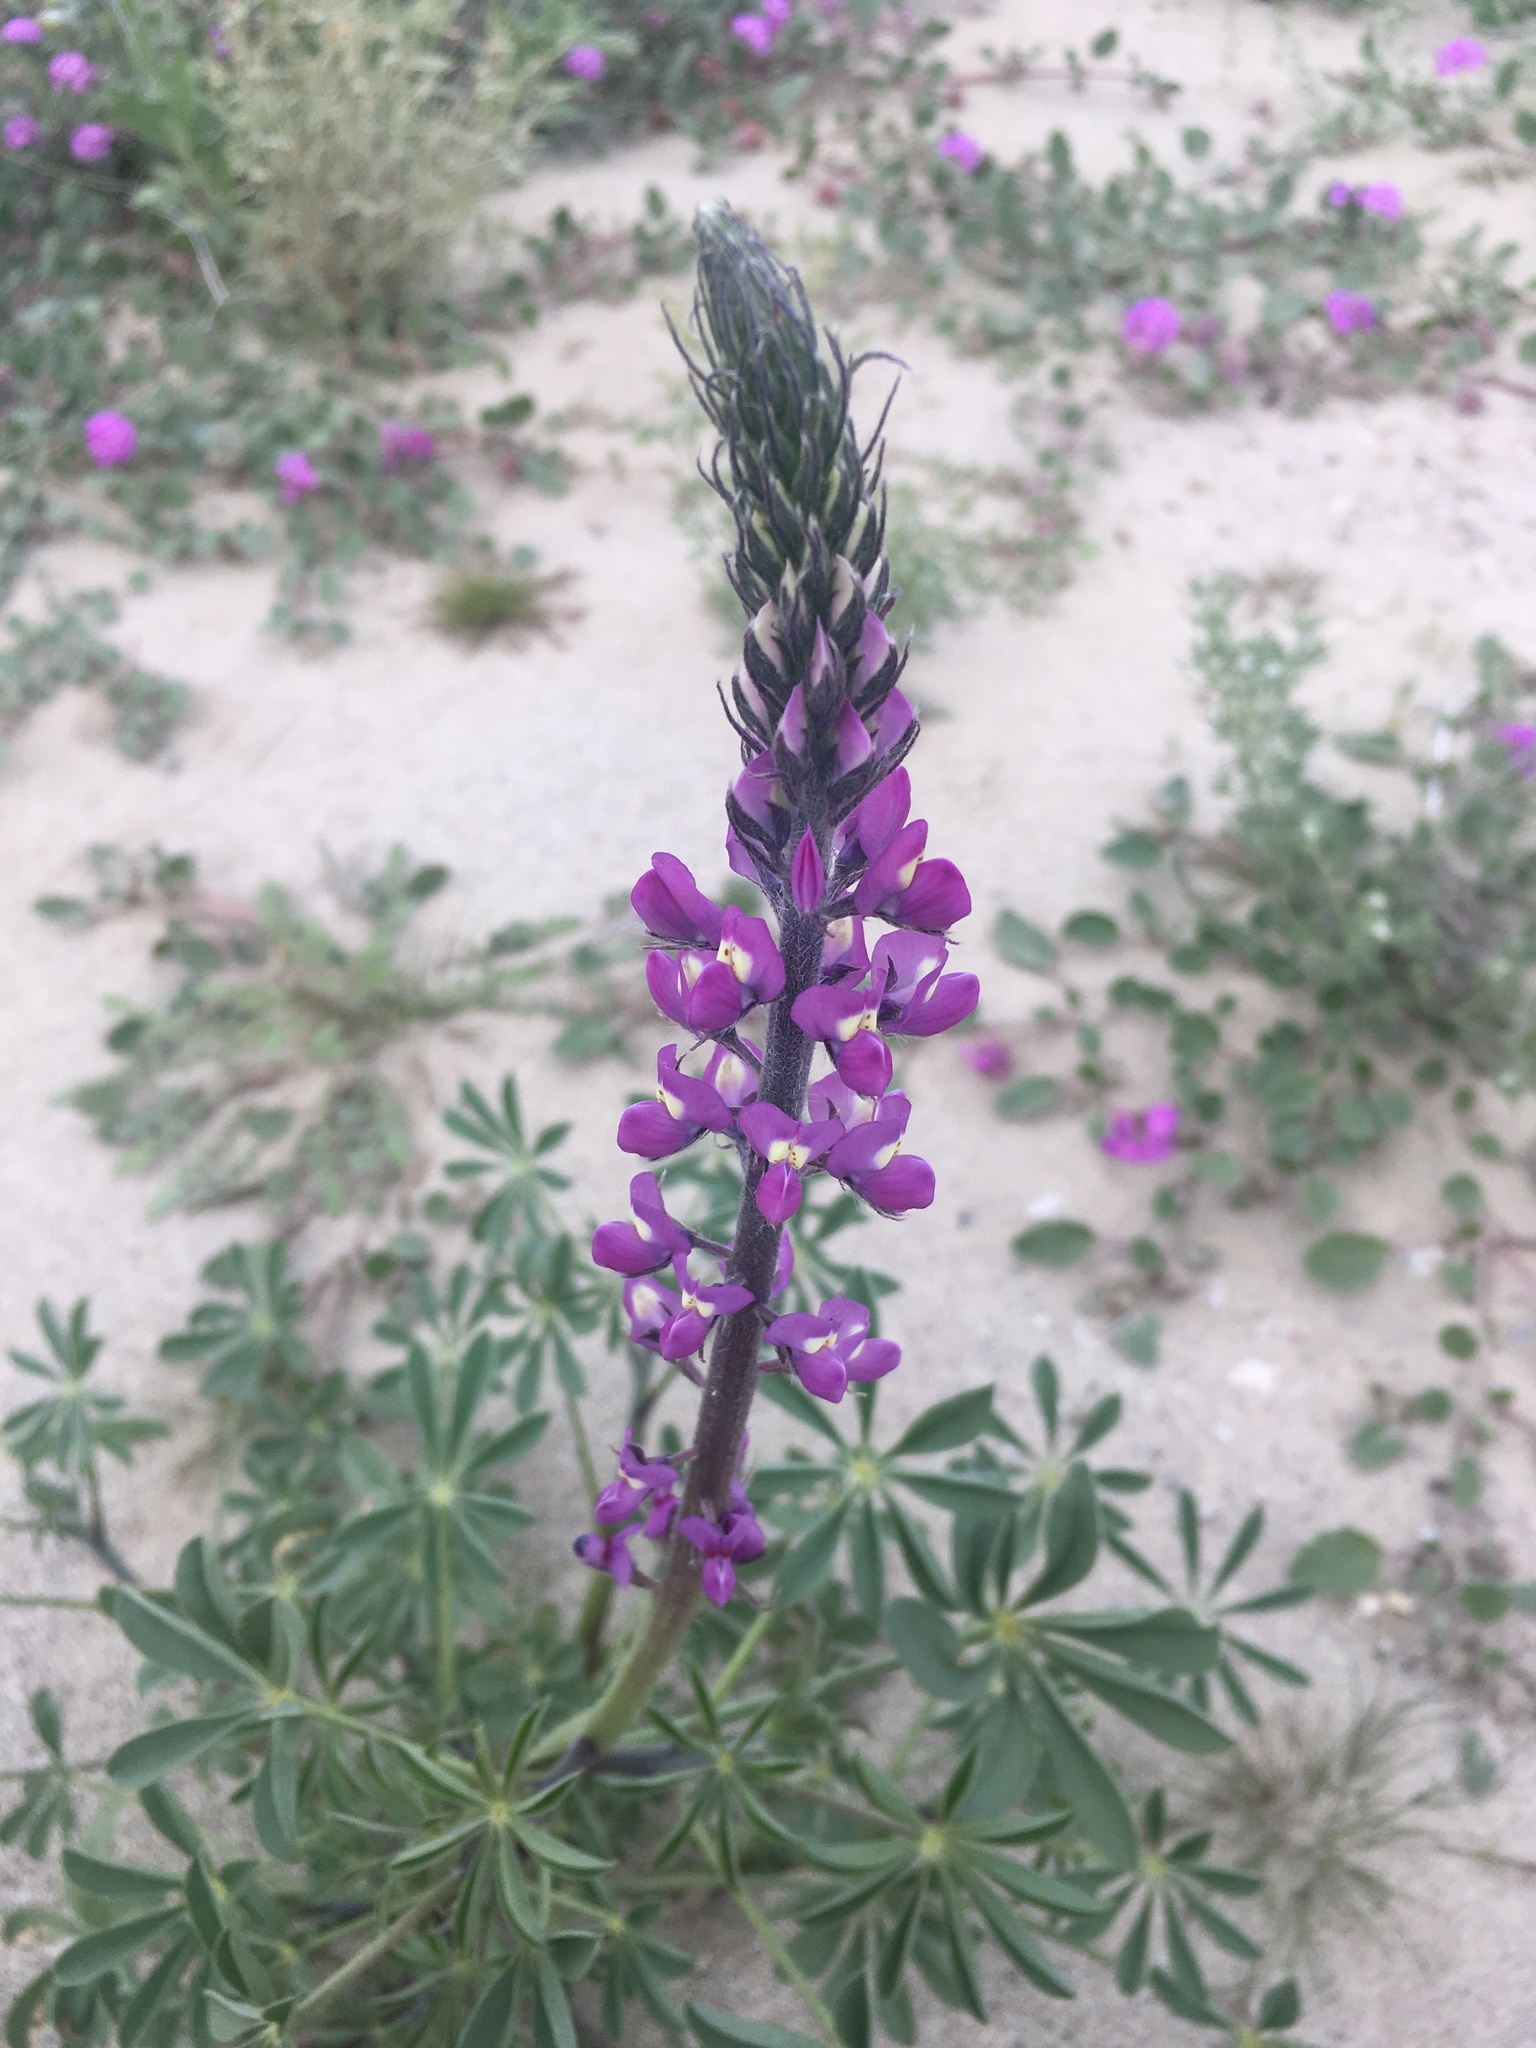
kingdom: Plantae
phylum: Tracheophyta
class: Magnoliopsida
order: Fabales
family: Fabaceae
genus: Lupinus
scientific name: Lupinus arizonicus
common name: Arizona lupine
